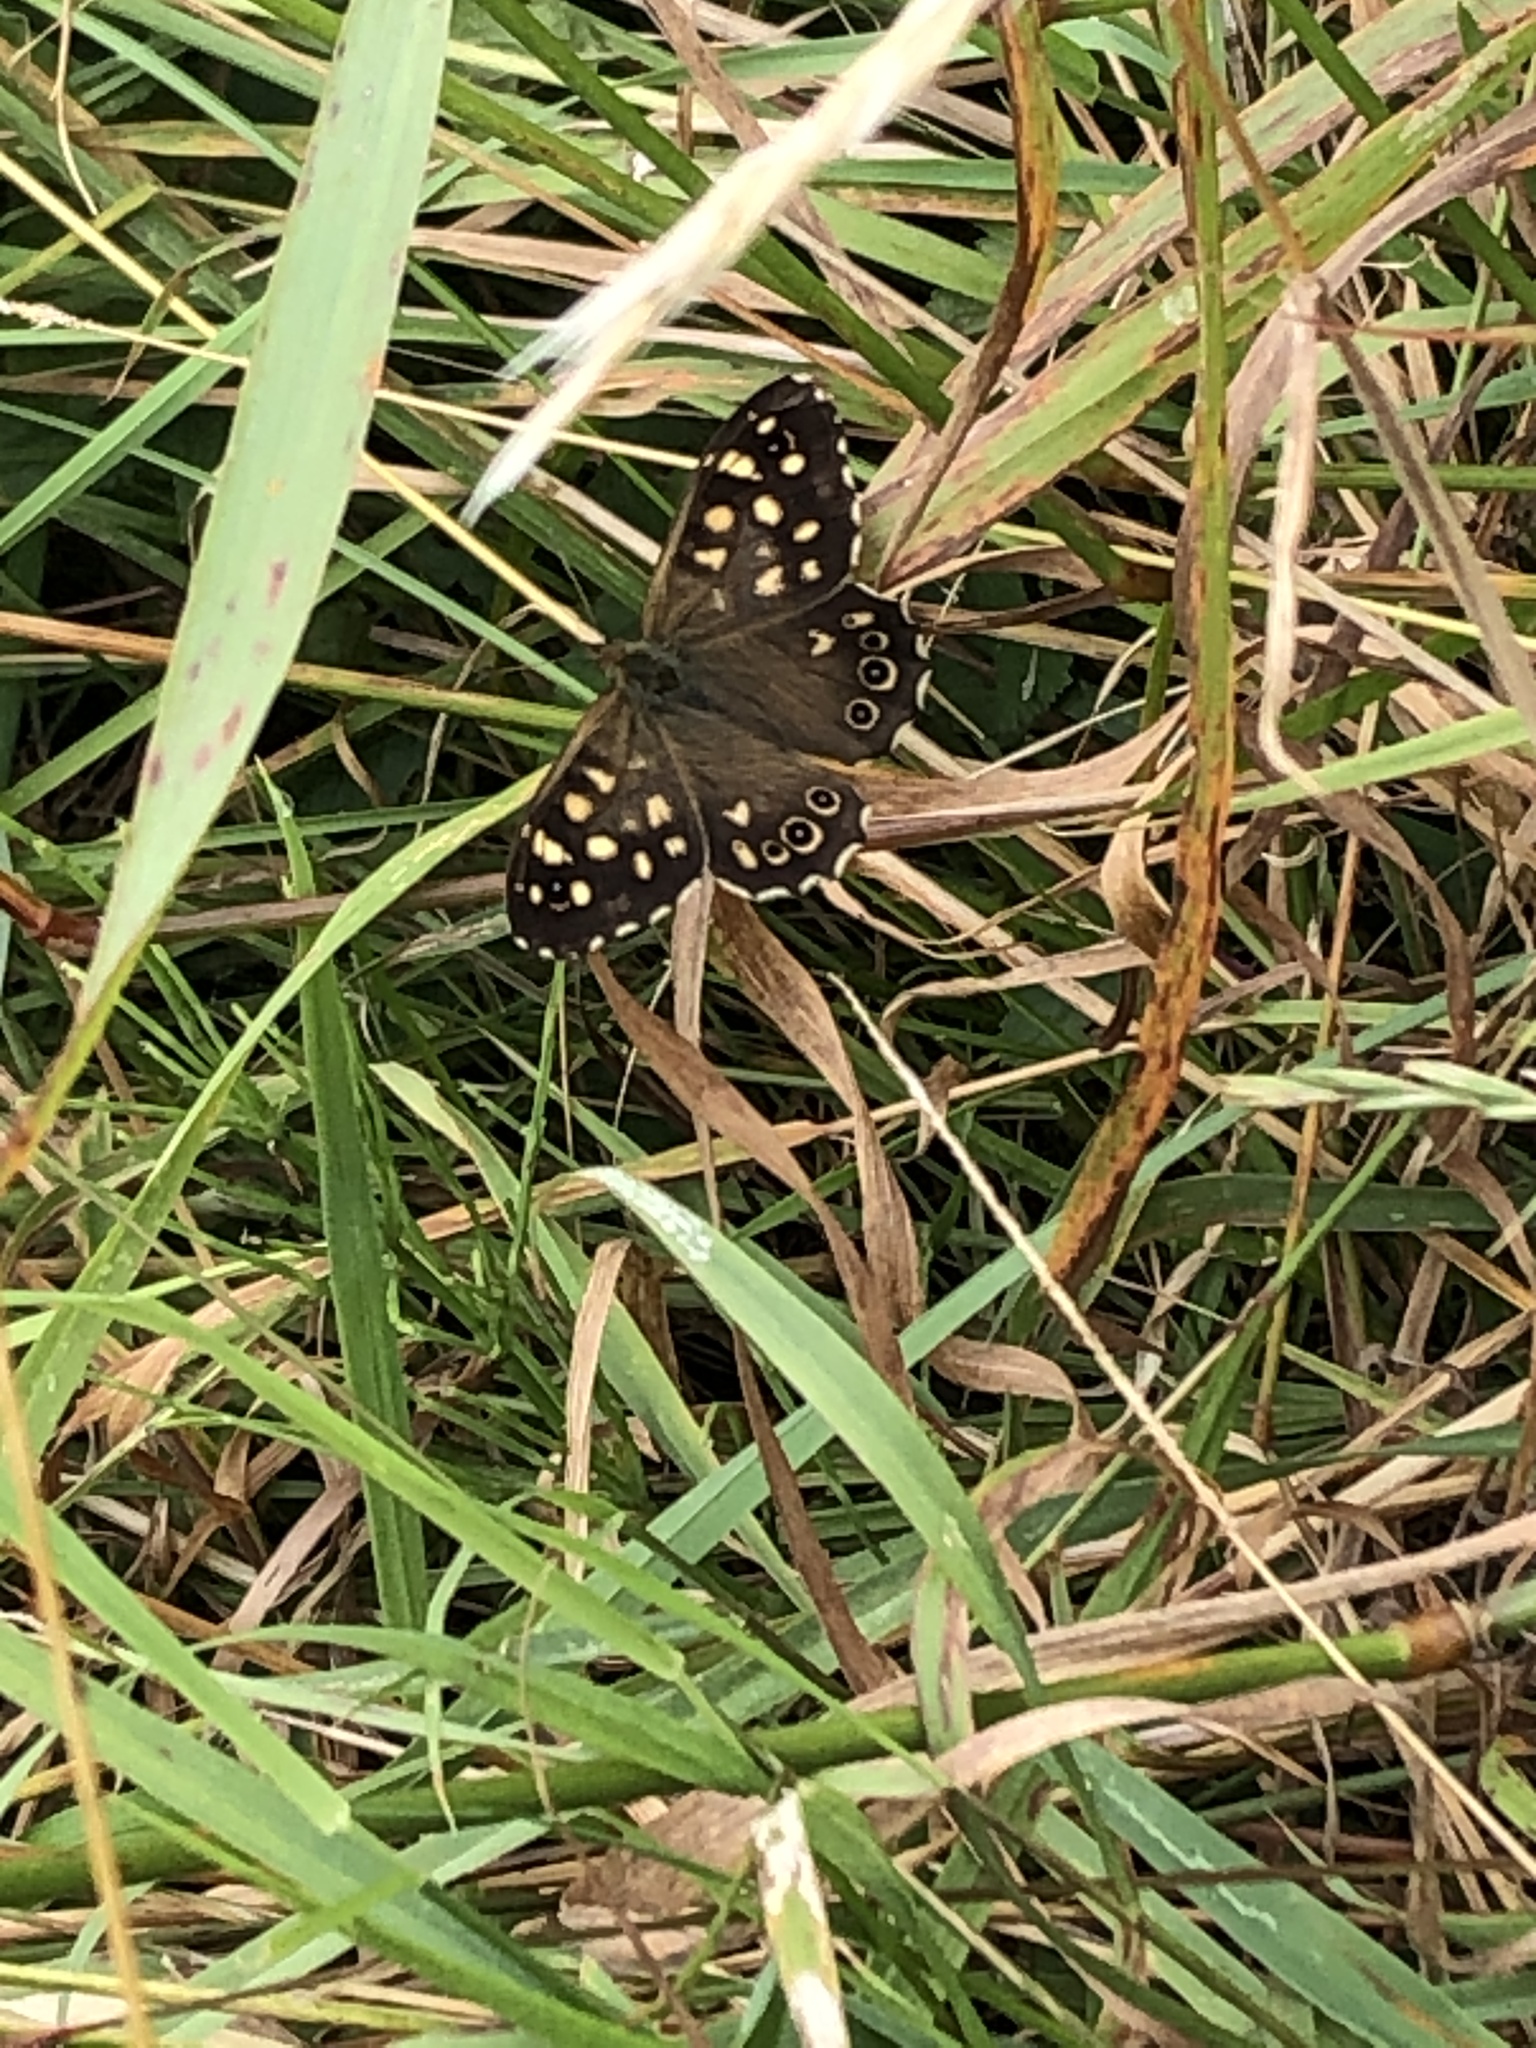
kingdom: Animalia
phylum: Arthropoda
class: Insecta
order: Lepidoptera
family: Nymphalidae
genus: Pararge
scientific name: Pararge aegeria
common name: Speckled wood
